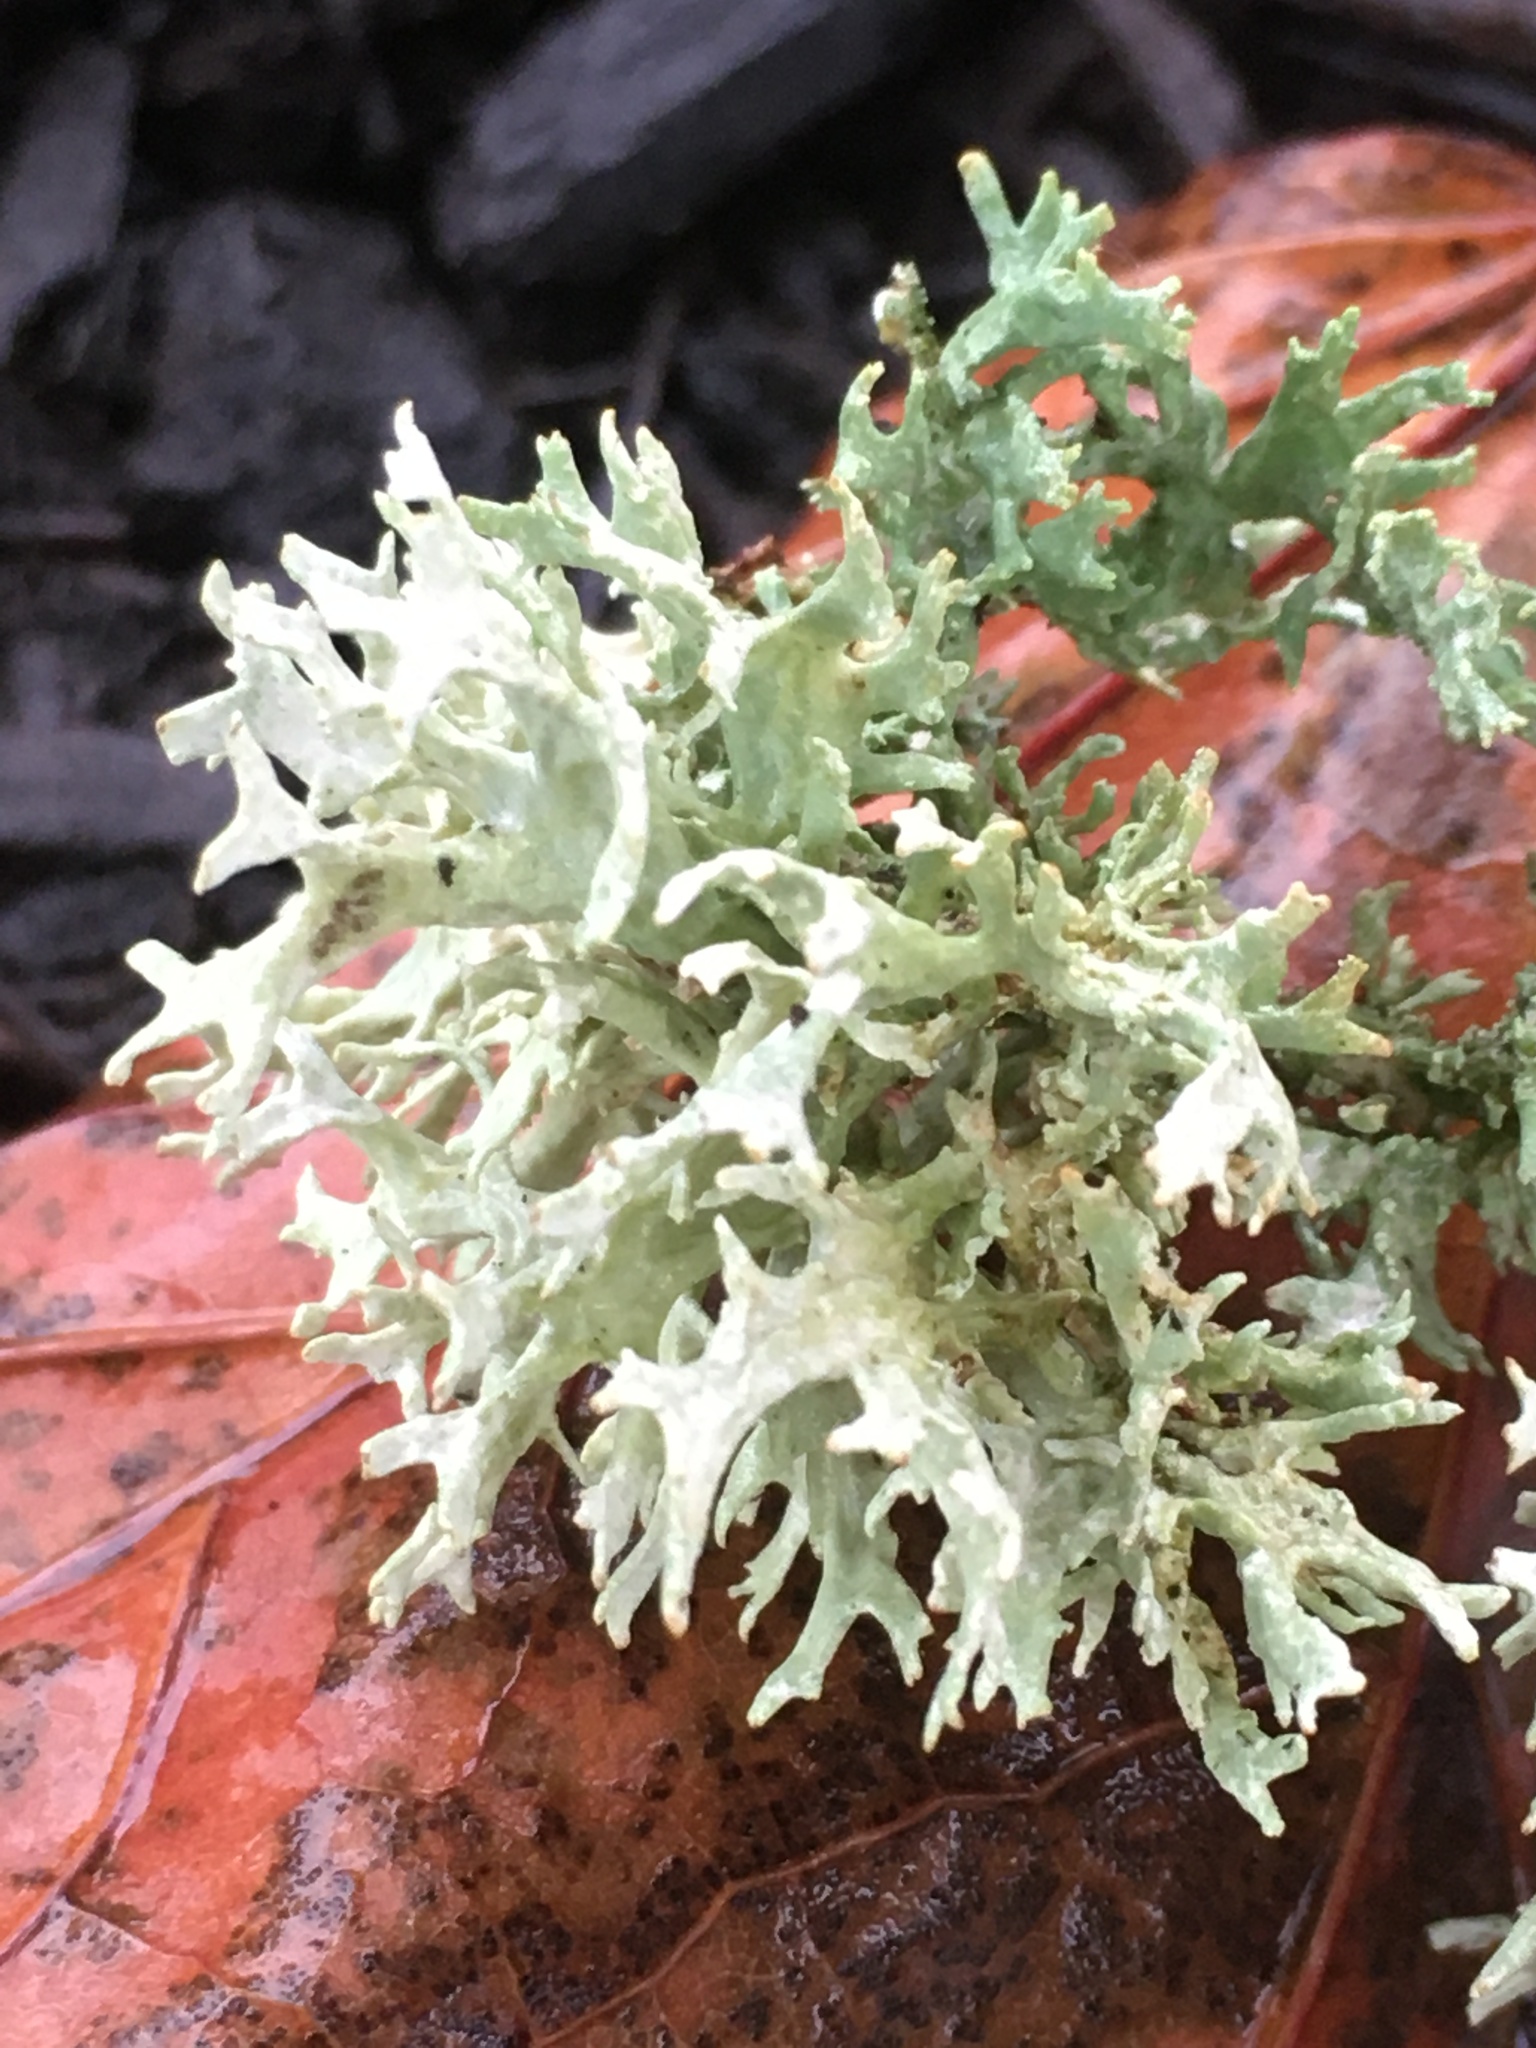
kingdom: Fungi
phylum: Ascomycota
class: Lecanoromycetes
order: Lecanorales
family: Parmeliaceae
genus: Evernia
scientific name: Evernia prunastri
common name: Oak moss
